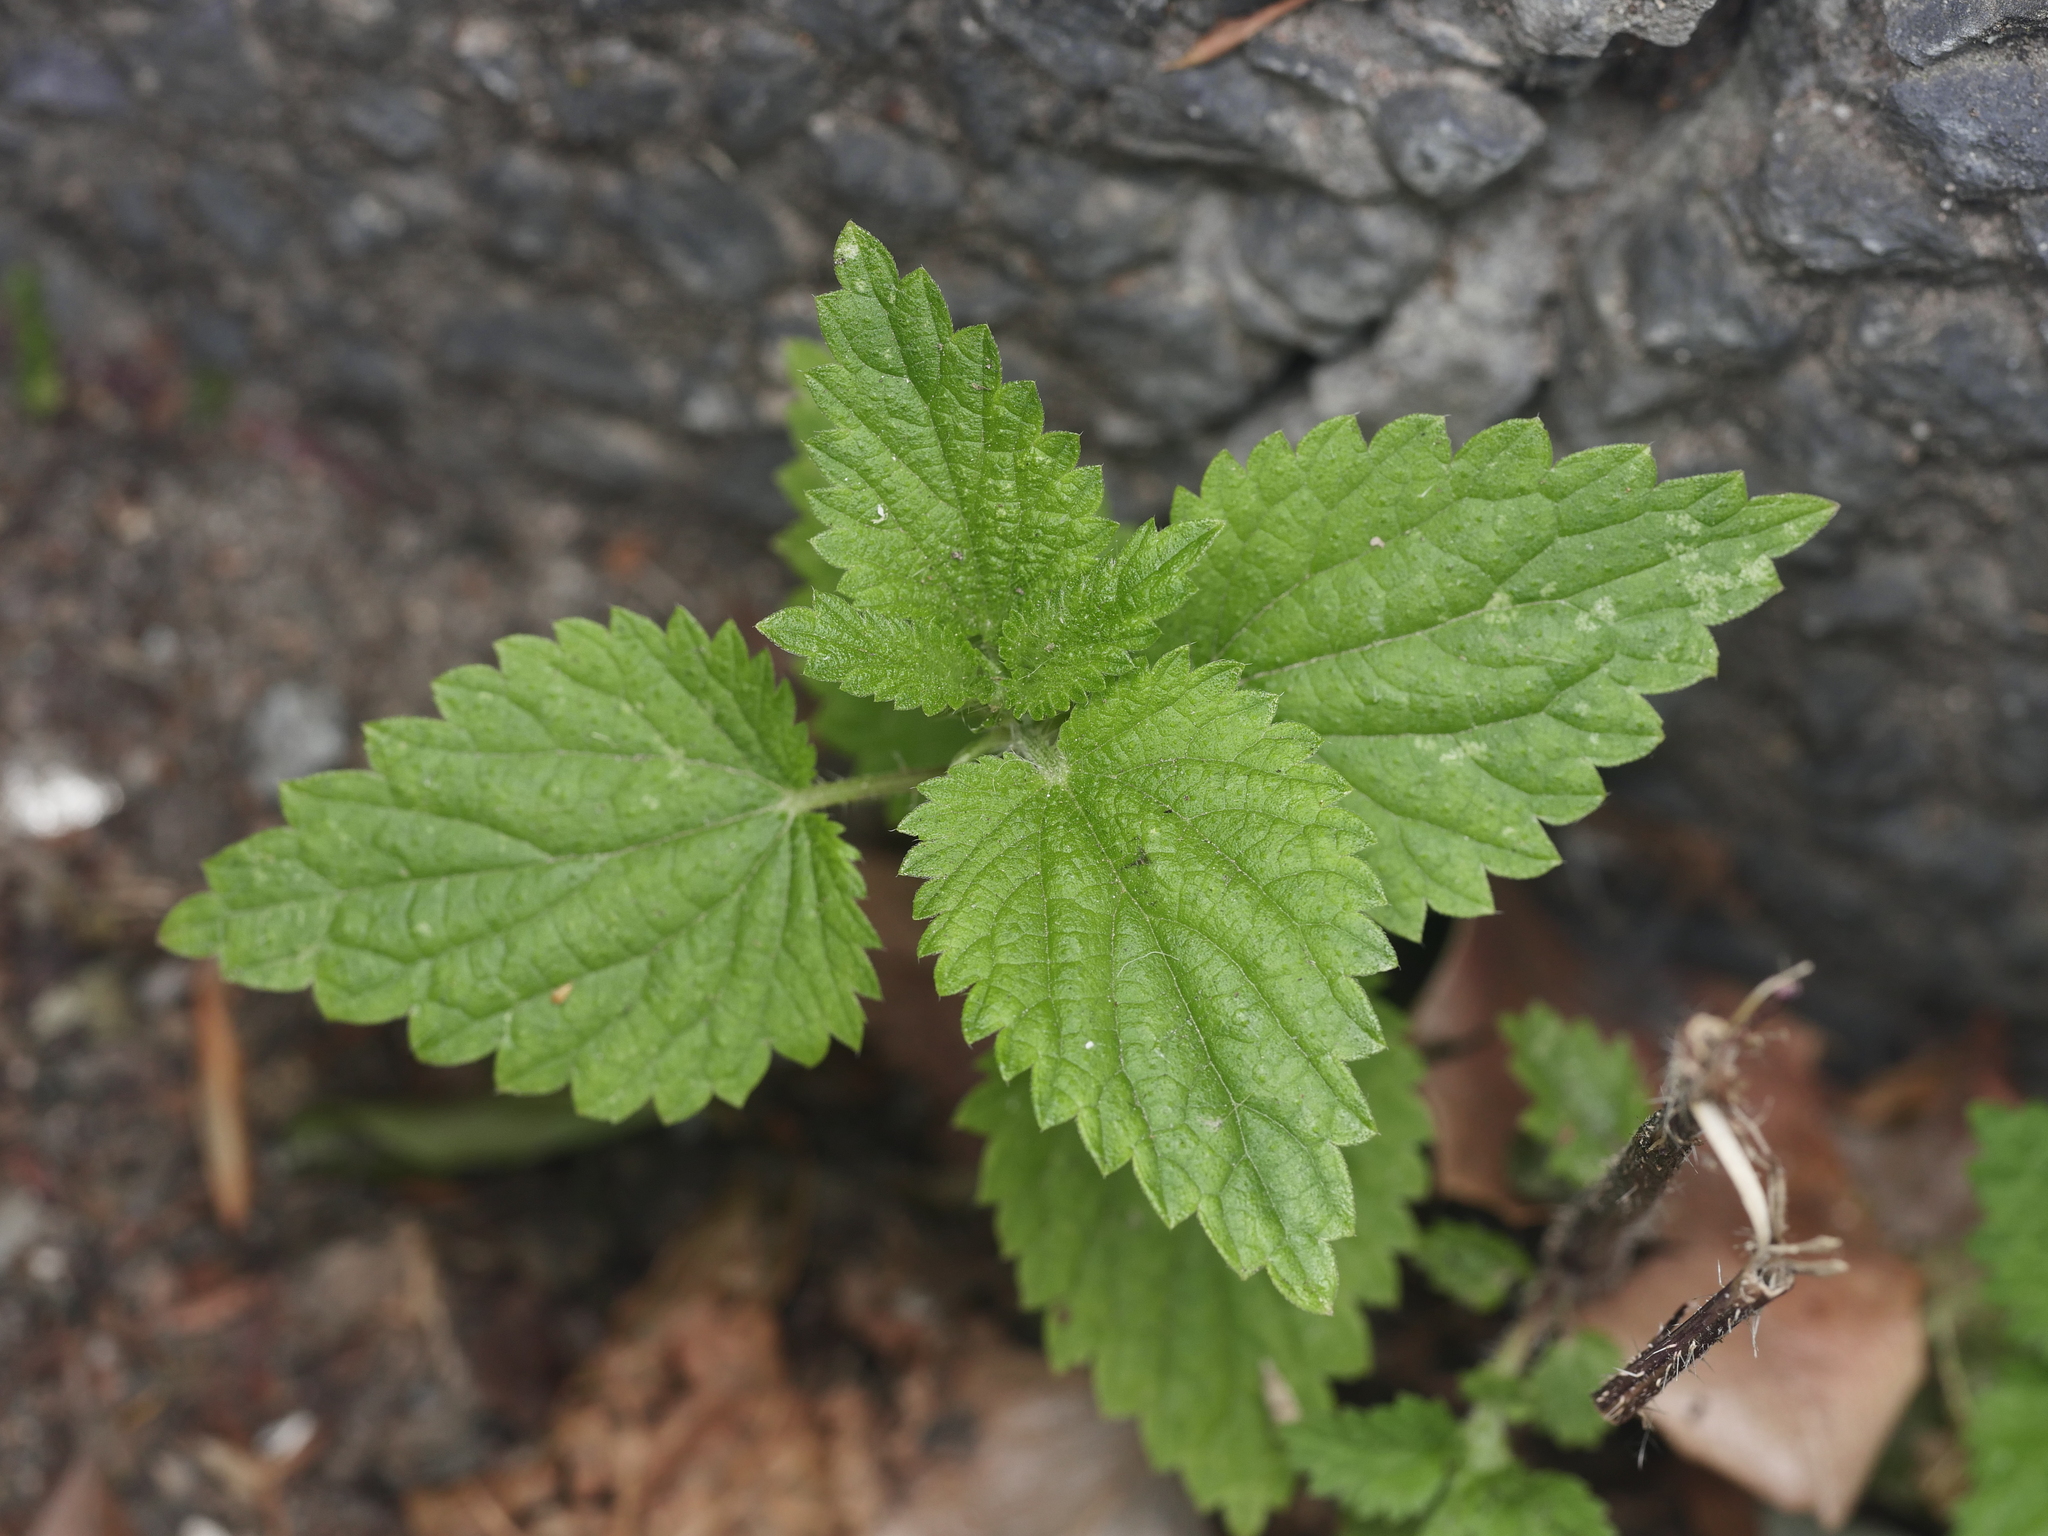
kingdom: Plantae
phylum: Tracheophyta
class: Magnoliopsida
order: Rosales
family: Urticaceae
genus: Urtica
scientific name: Urtica dioica
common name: Common nettle
